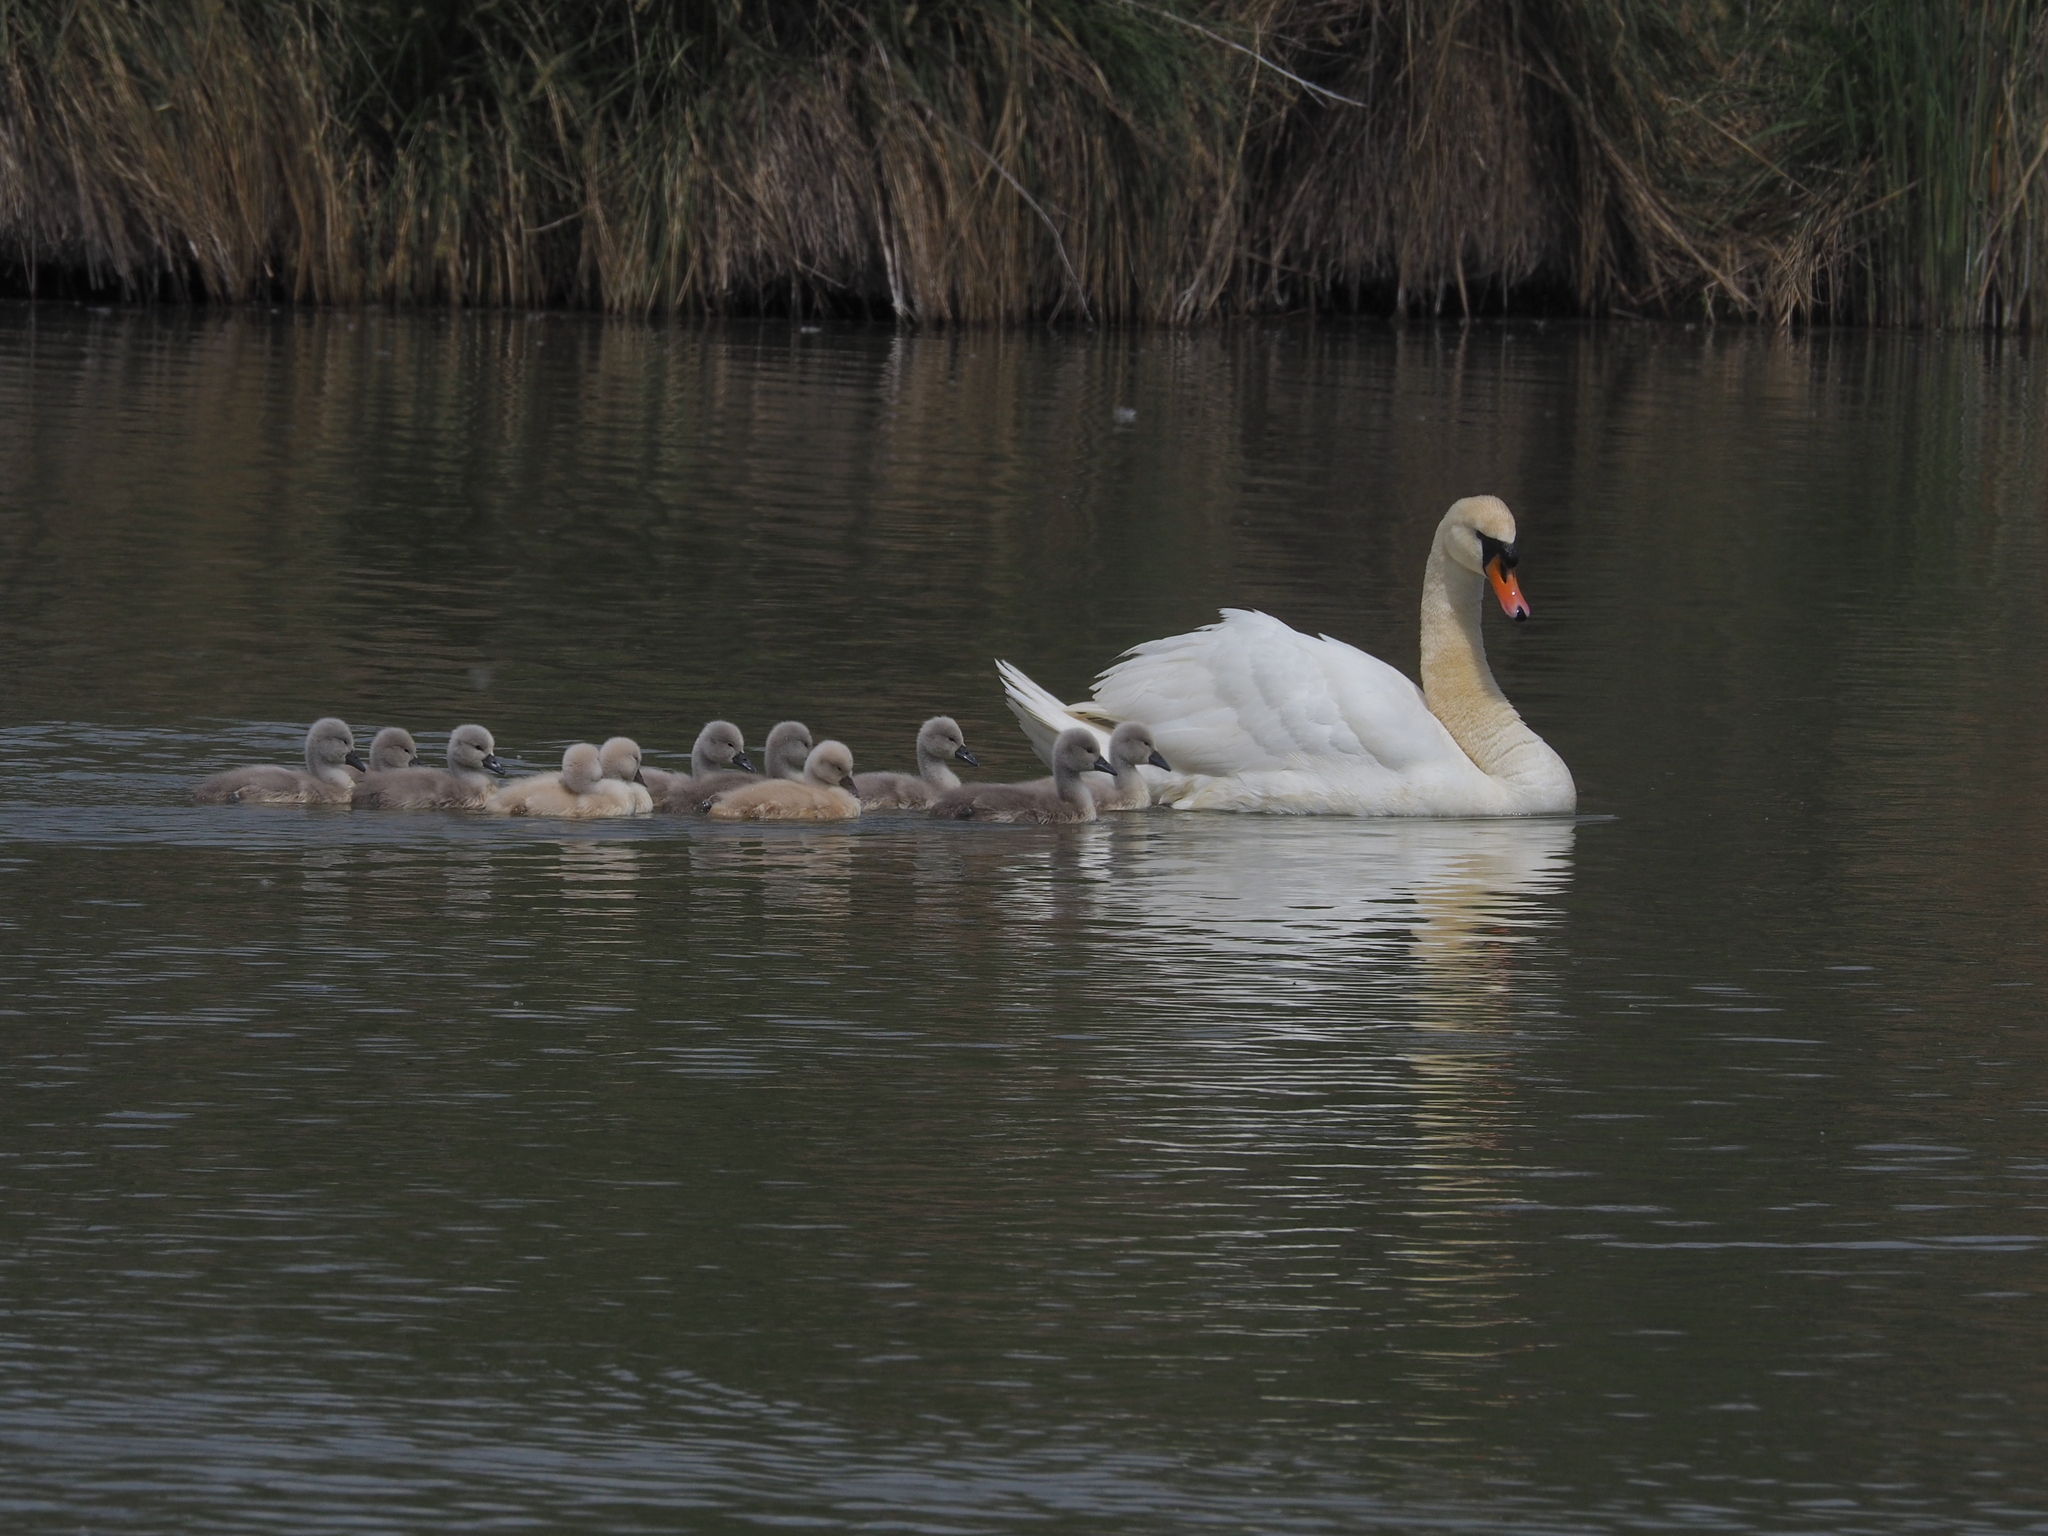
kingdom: Animalia
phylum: Chordata
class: Aves
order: Anseriformes
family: Anatidae
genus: Cygnus
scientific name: Cygnus olor
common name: Mute swan
